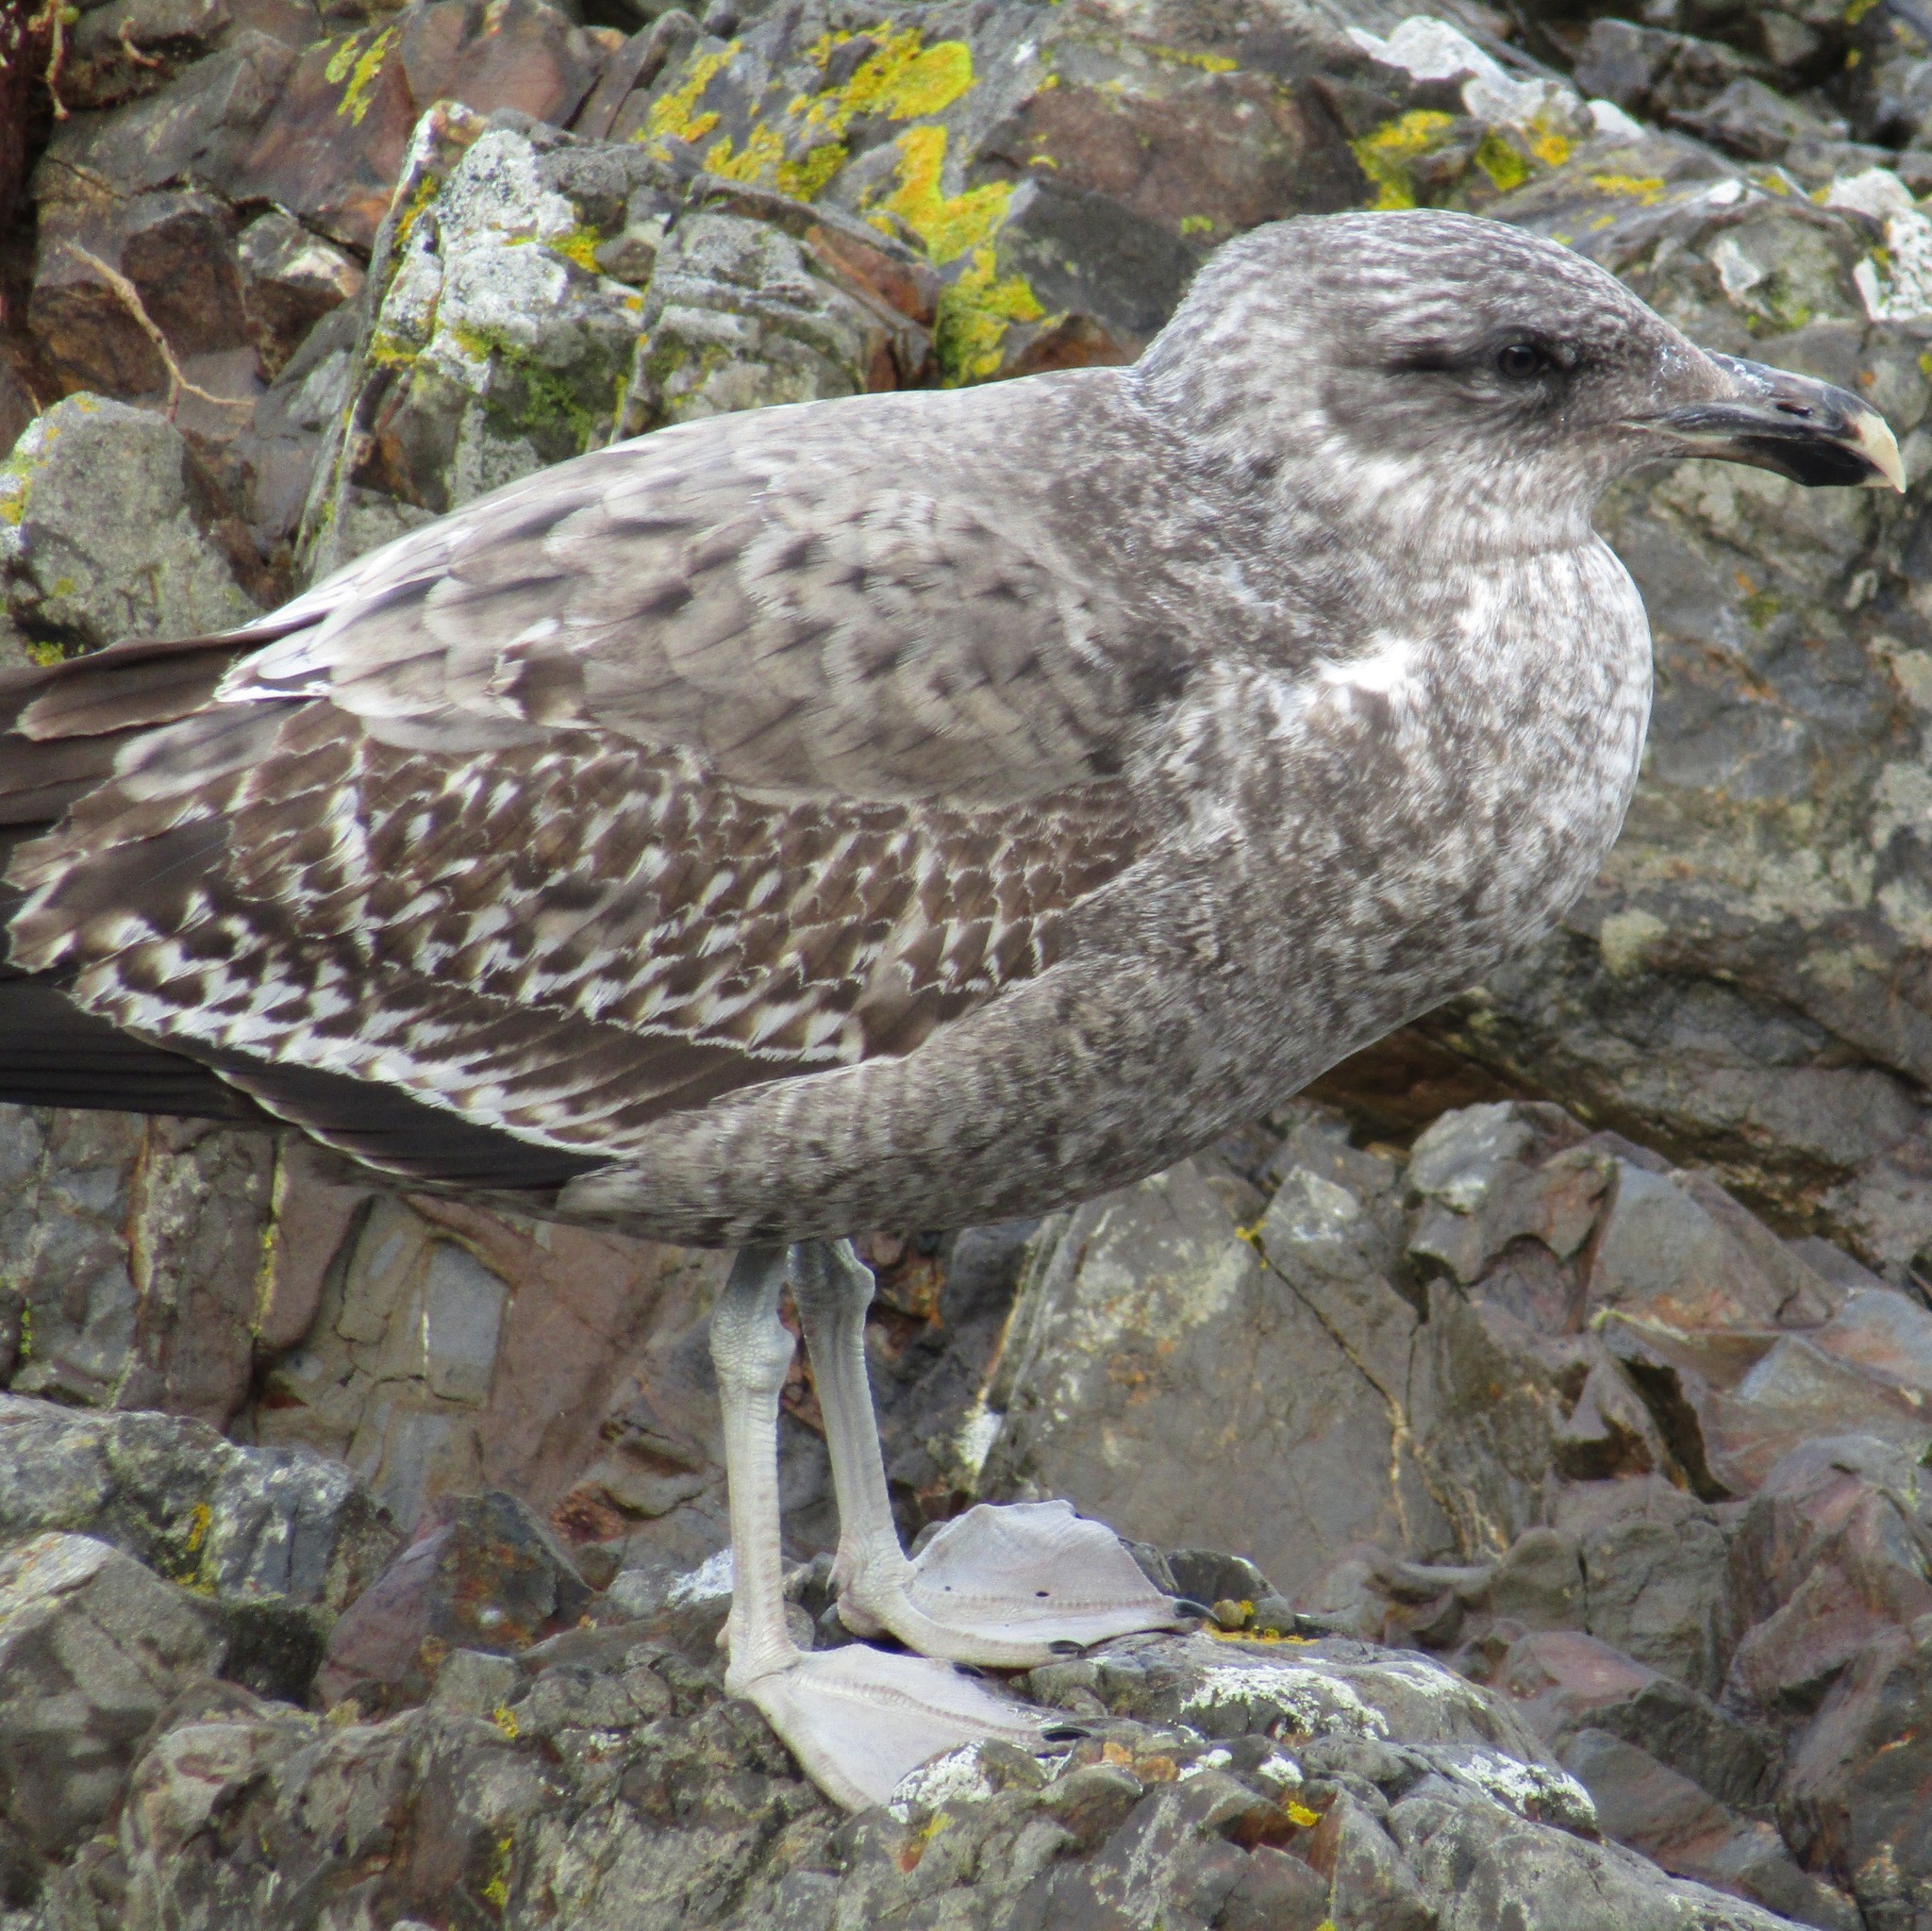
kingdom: Animalia
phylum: Chordata
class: Aves
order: Charadriiformes
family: Laridae
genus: Larus
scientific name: Larus dominicanus
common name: Kelp gull
